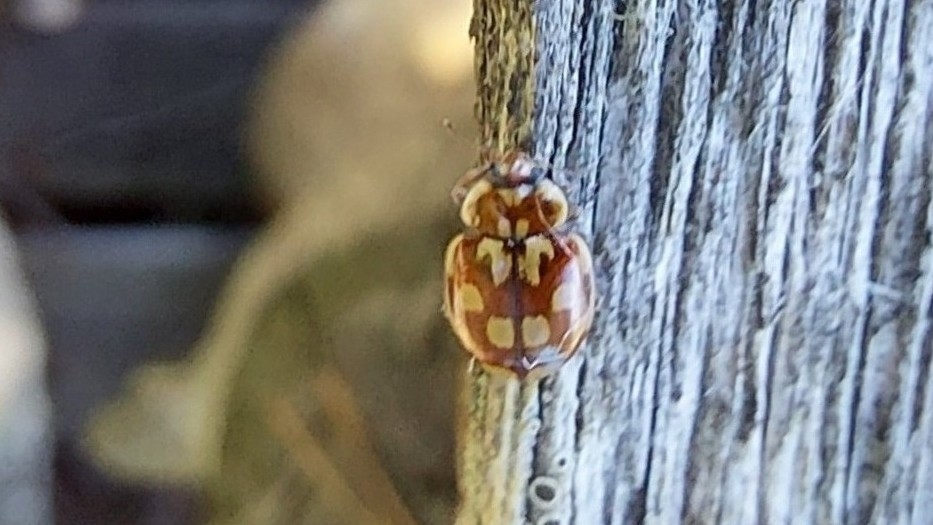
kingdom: Animalia
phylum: Arthropoda
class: Insecta
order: Coleoptera
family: Coccinellidae
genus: Myrrha
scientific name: Myrrha octodecimguttata
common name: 18-spot ladybird
